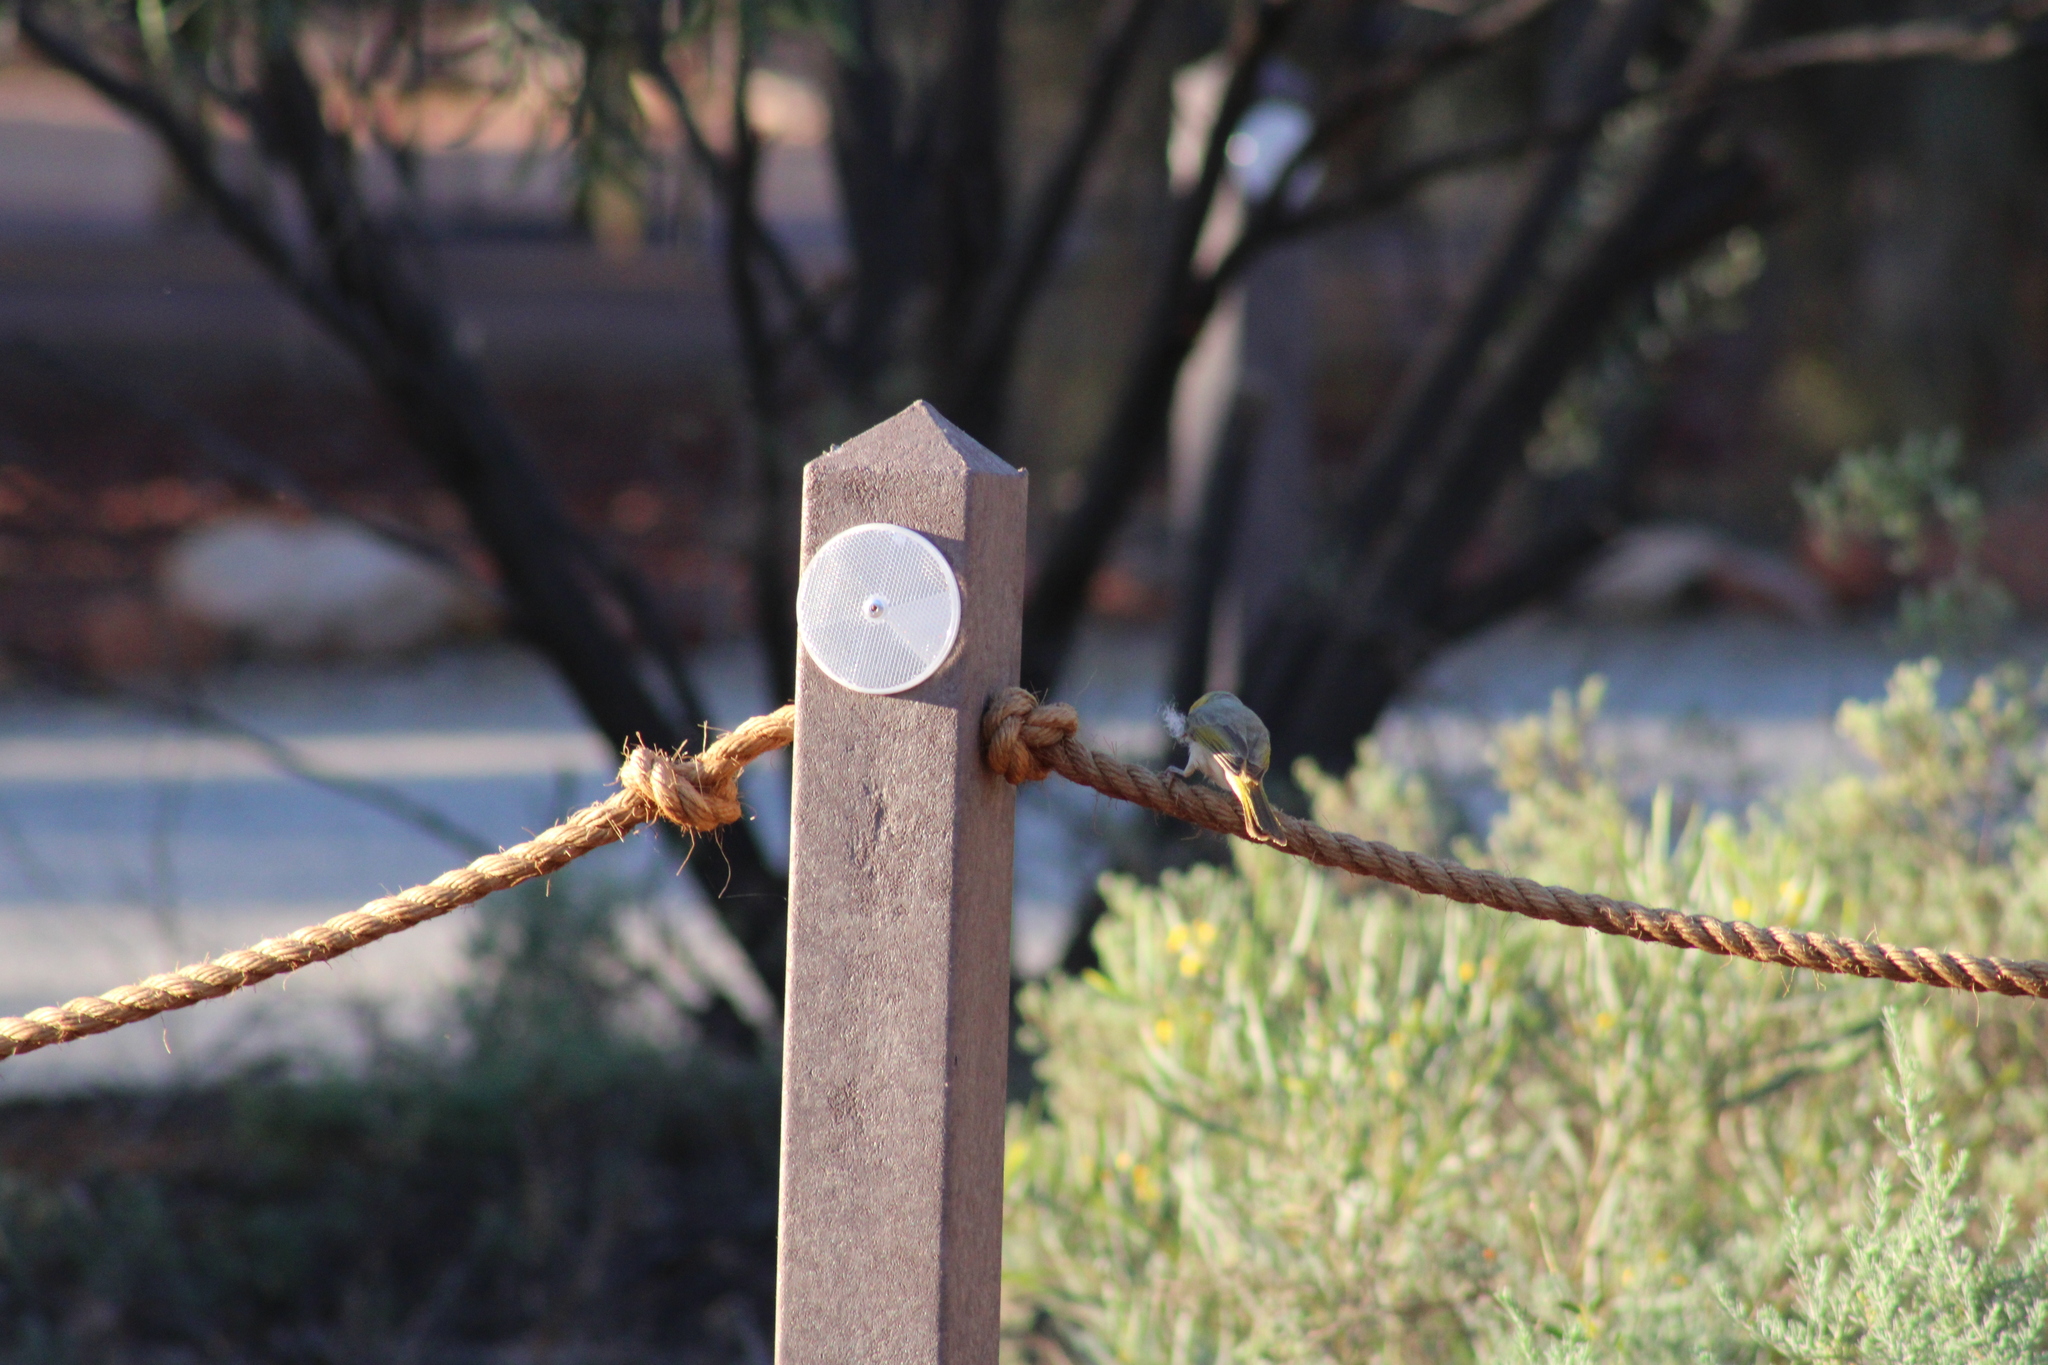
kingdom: Animalia
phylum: Chordata
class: Aves
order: Passeriformes
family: Meliphagidae
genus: Ptilotula
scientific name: Ptilotula penicillata
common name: White-plumed honeyeater
